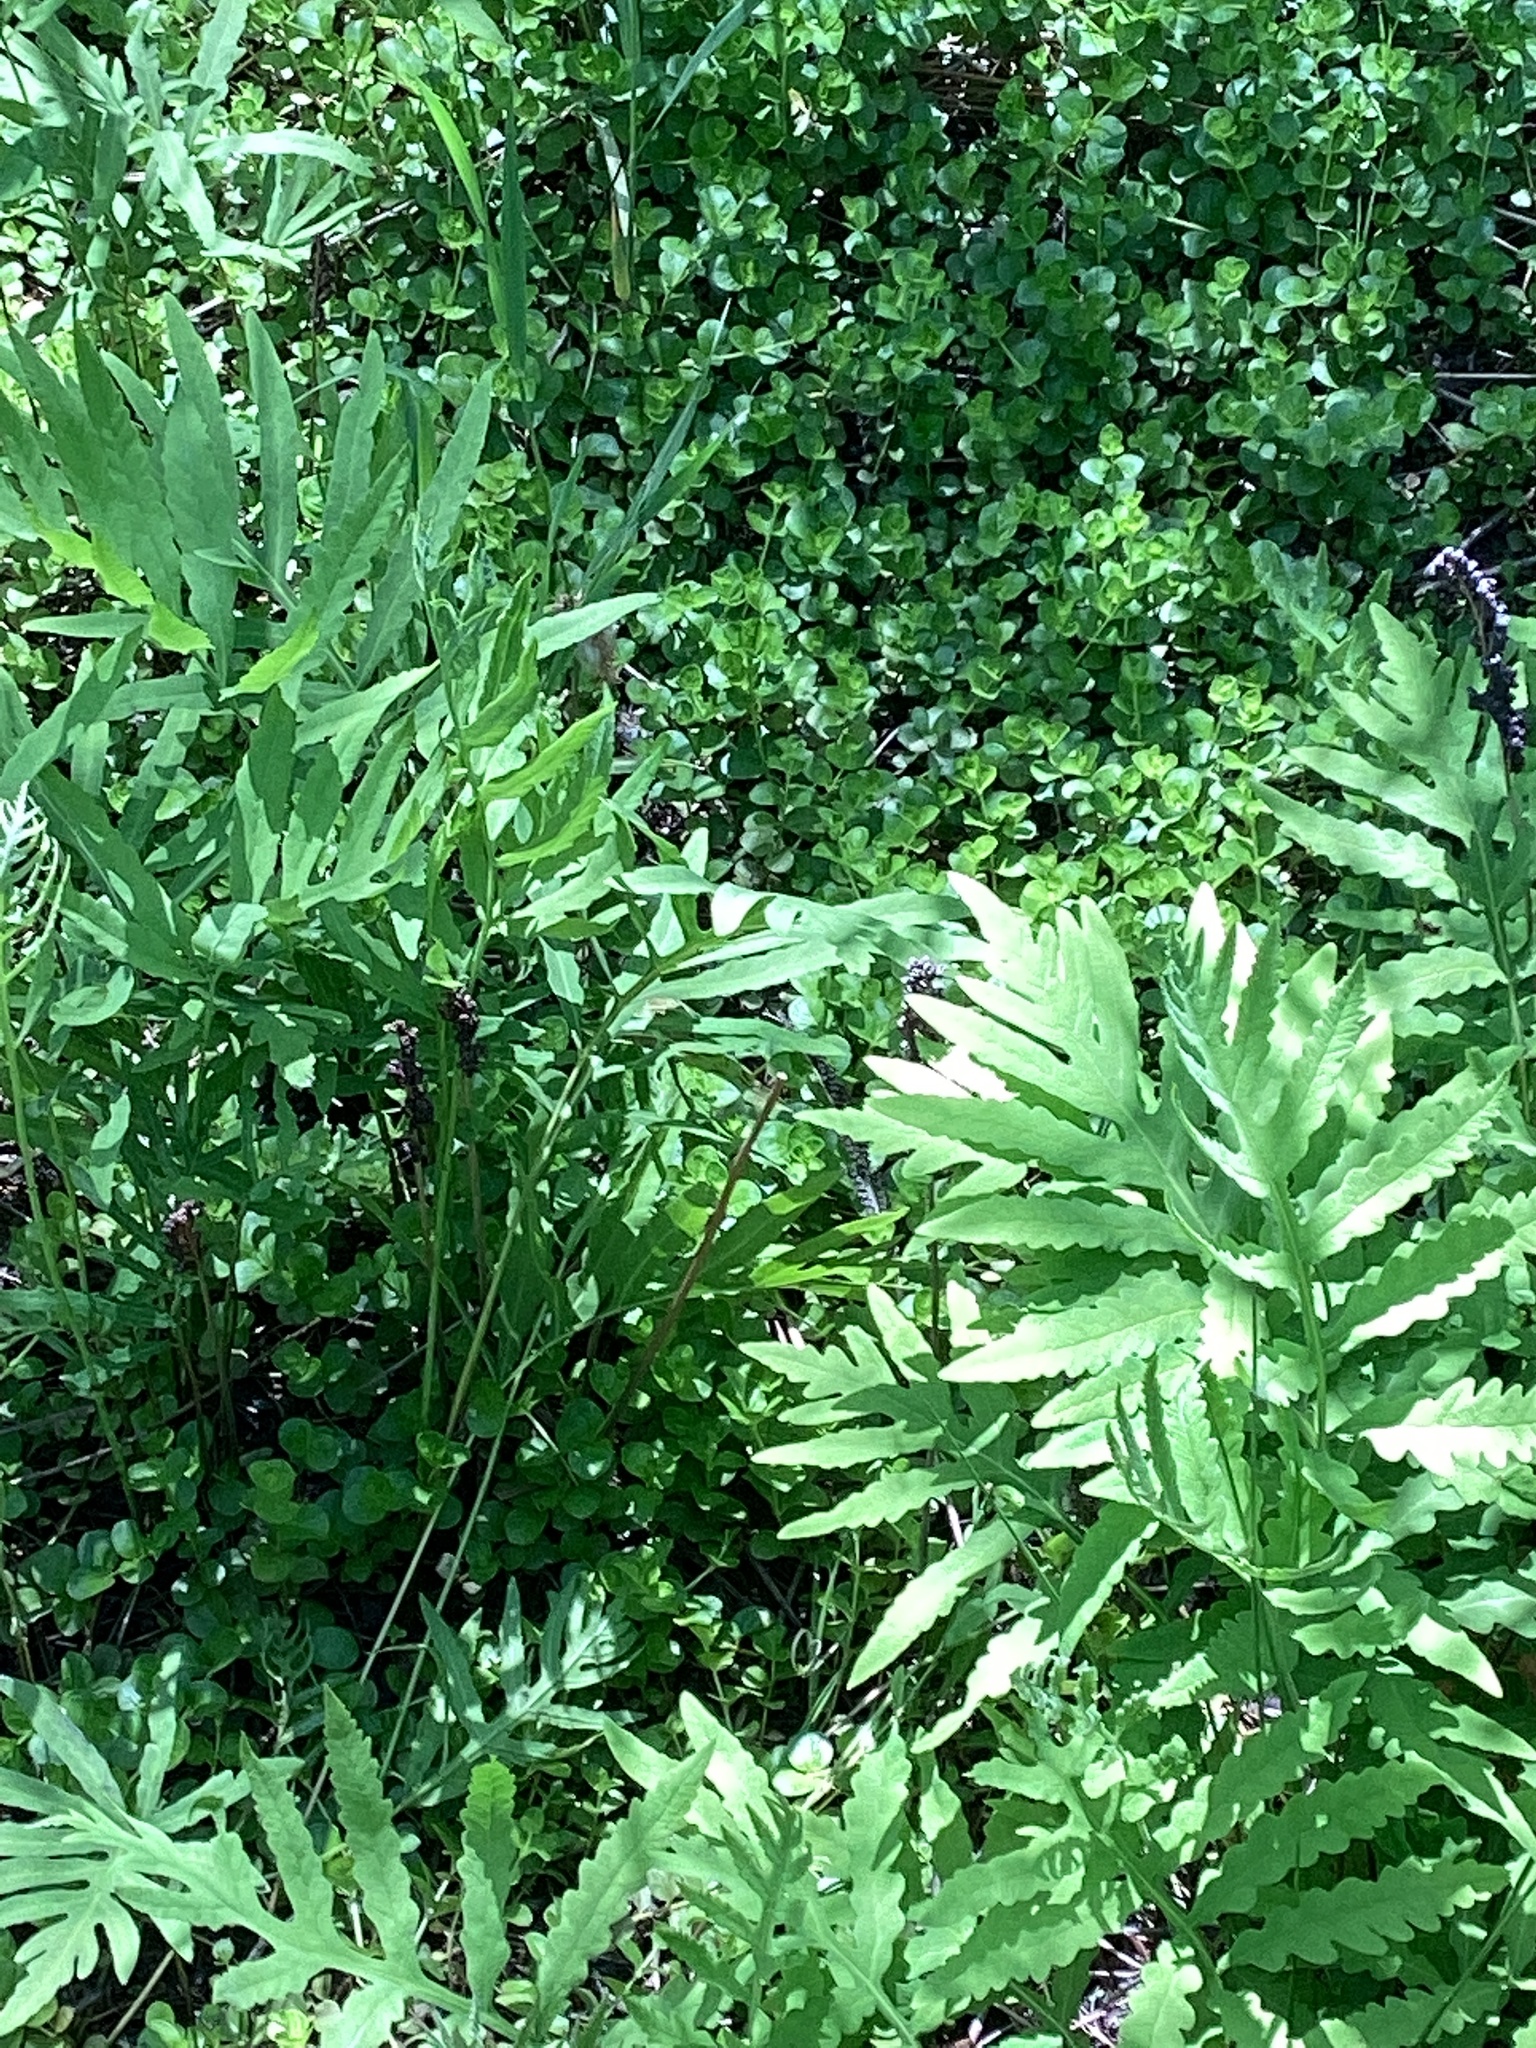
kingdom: Plantae
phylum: Tracheophyta
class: Magnoliopsida
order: Ericales
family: Primulaceae
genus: Lysimachia
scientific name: Lysimachia nummularia
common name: Moneywort
